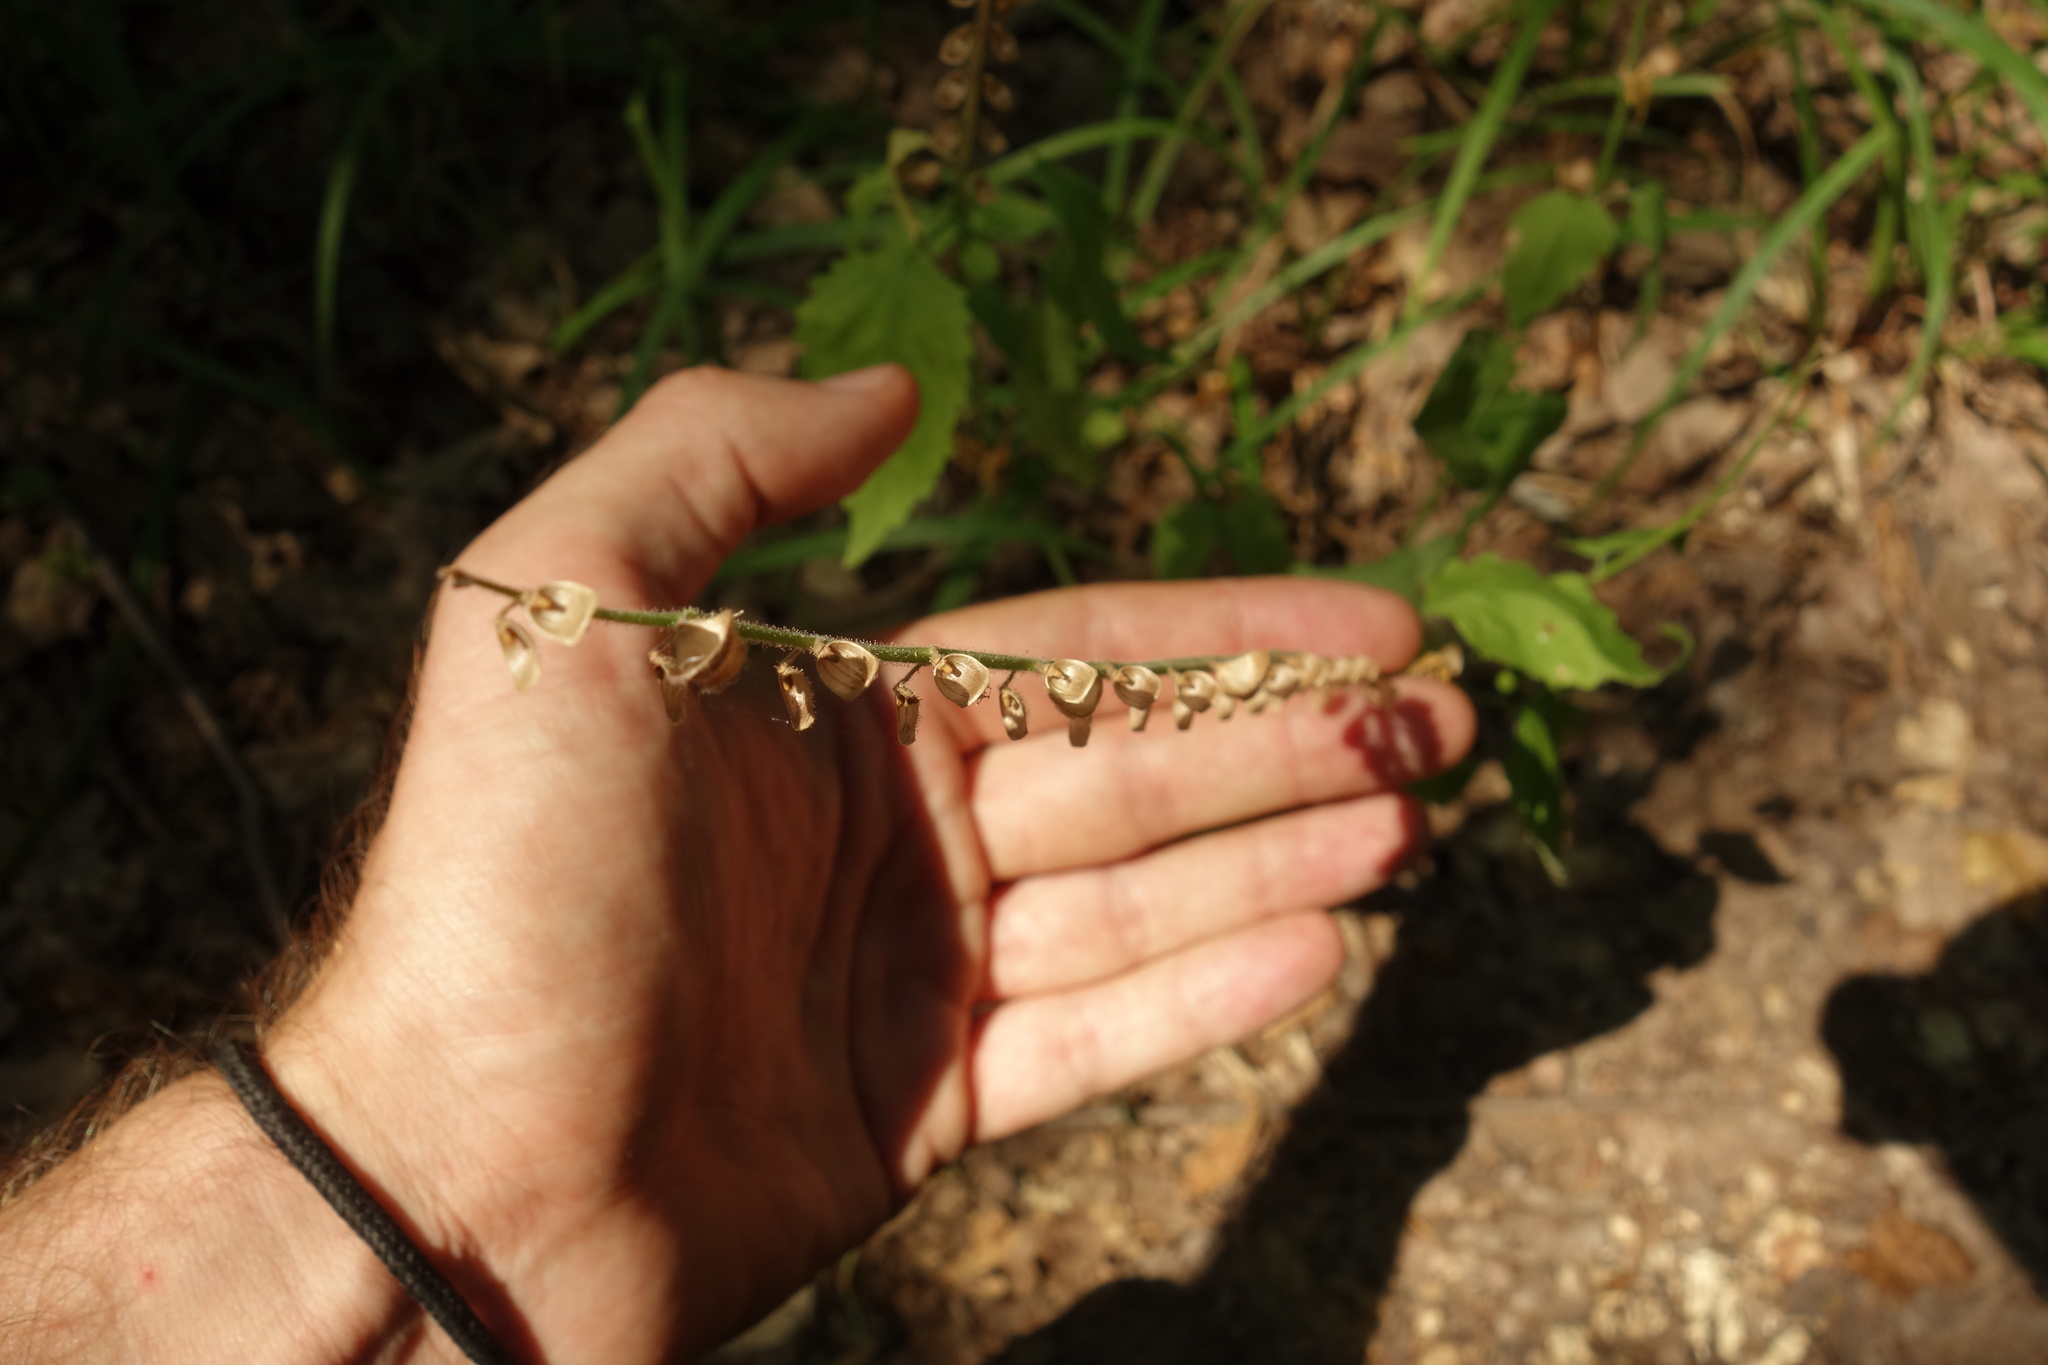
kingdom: Plantae
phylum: Tracheophyta
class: Magnoliopsida
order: Lamiales
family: Lamiaceae
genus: Scutellaria
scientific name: Scutellaria altissima
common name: Somerset skullcap
